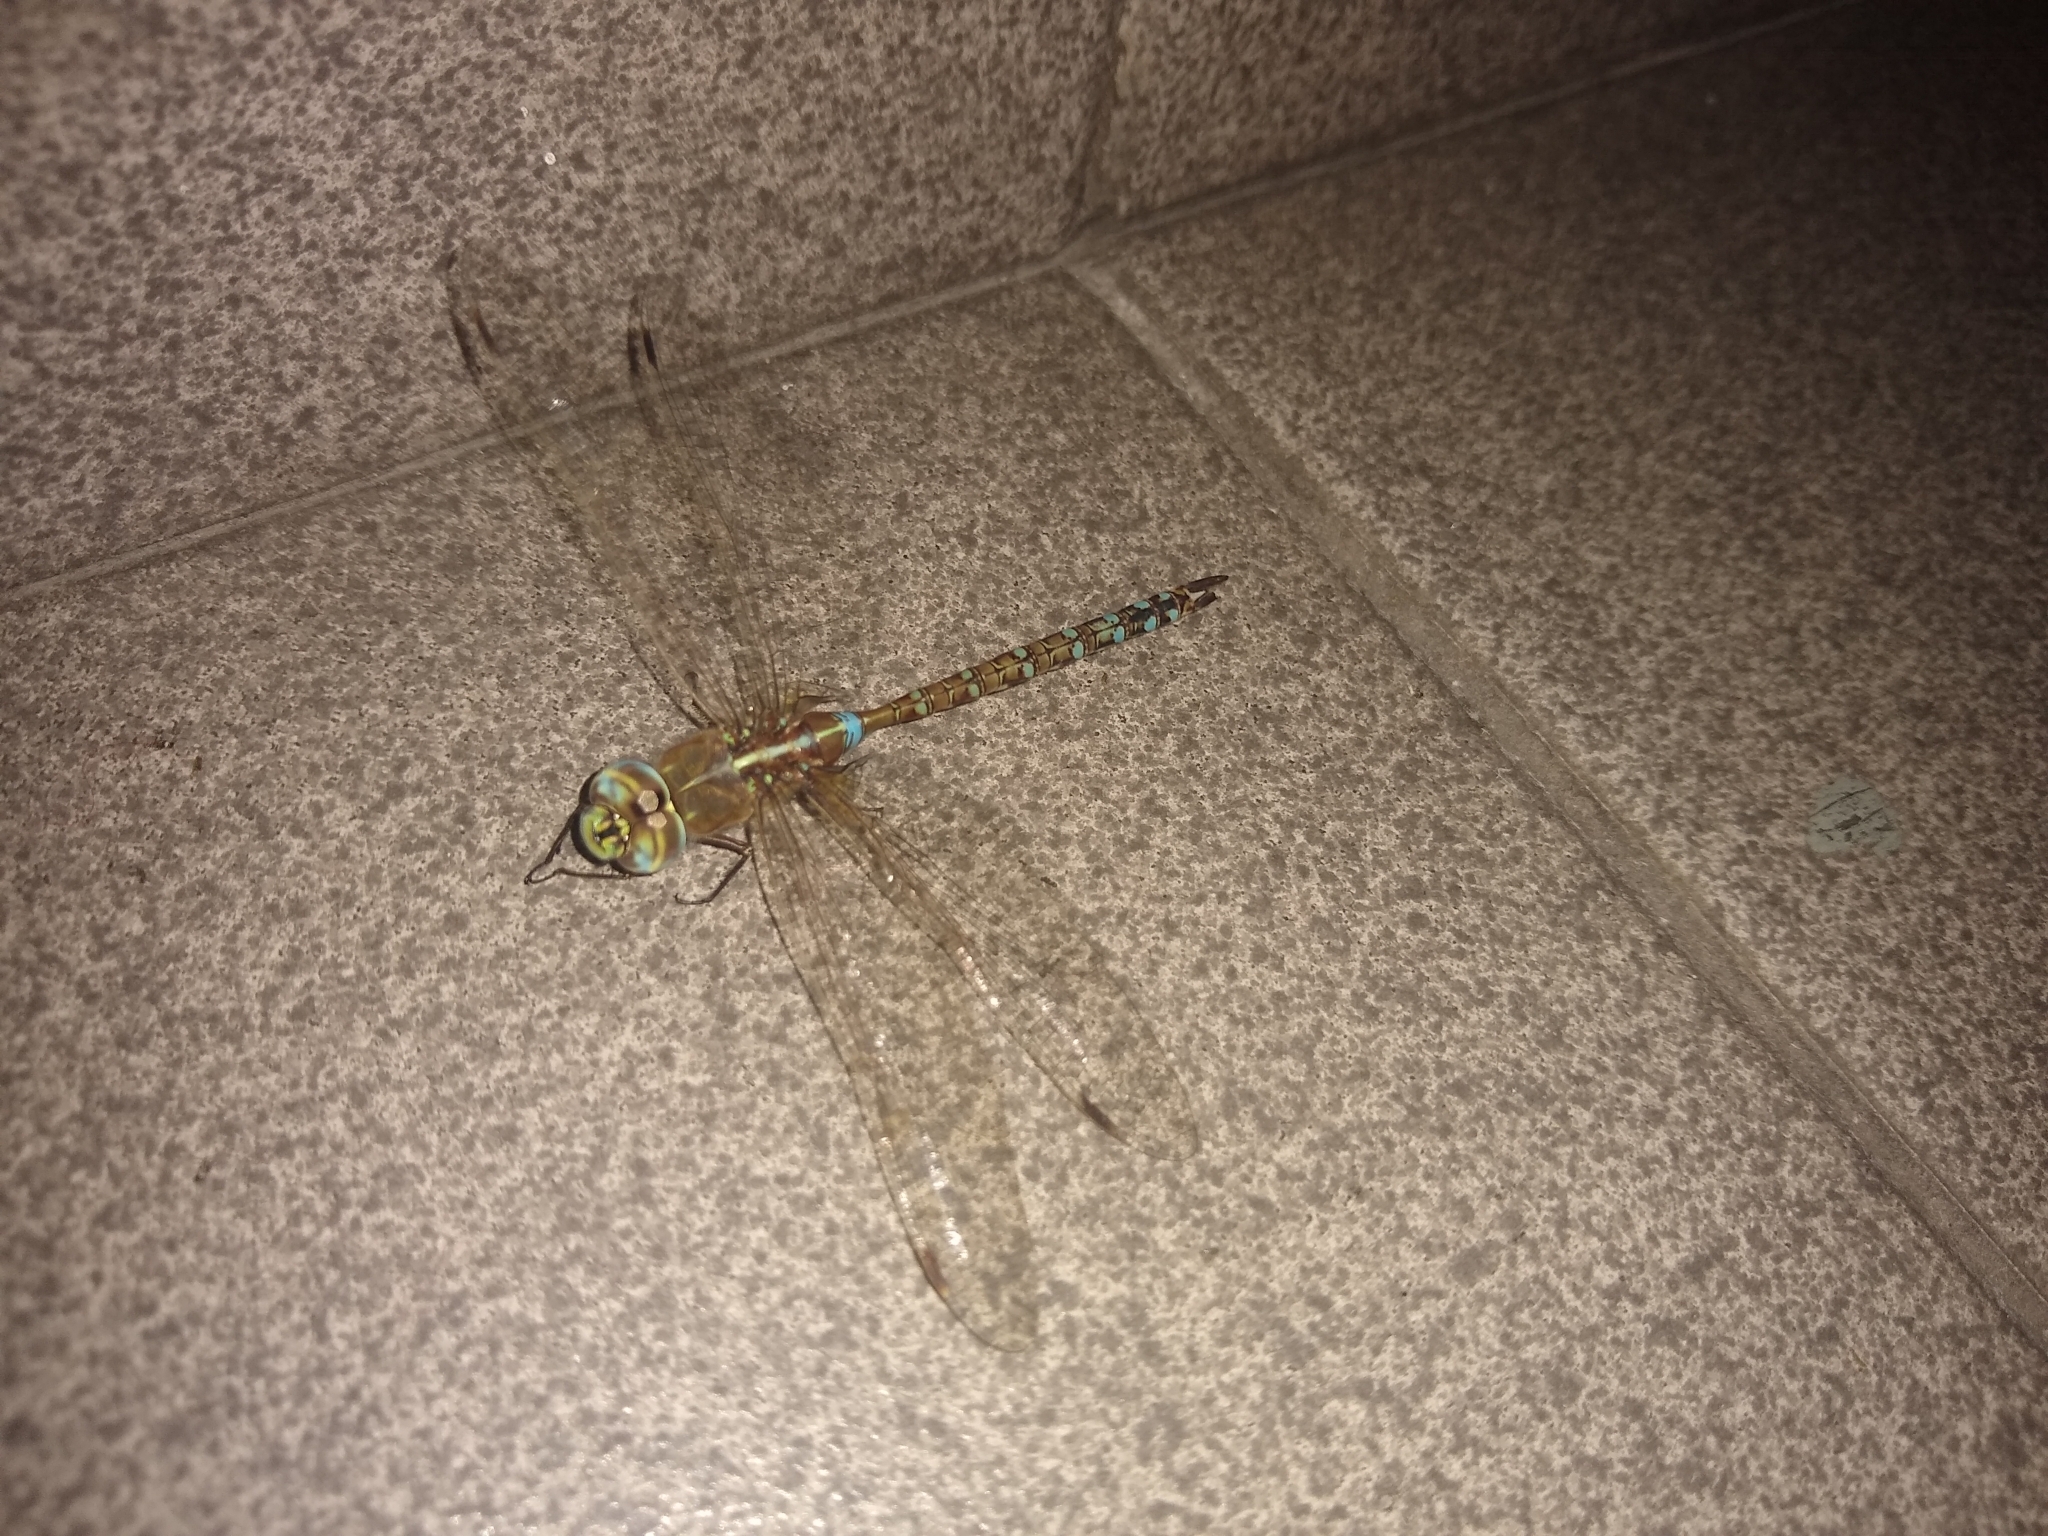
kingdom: Animalia
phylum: Arthropoda
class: Insecta
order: Odonata
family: Aeshnidae
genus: Rhionaeschna
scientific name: Rhionaeschna bonariensis
